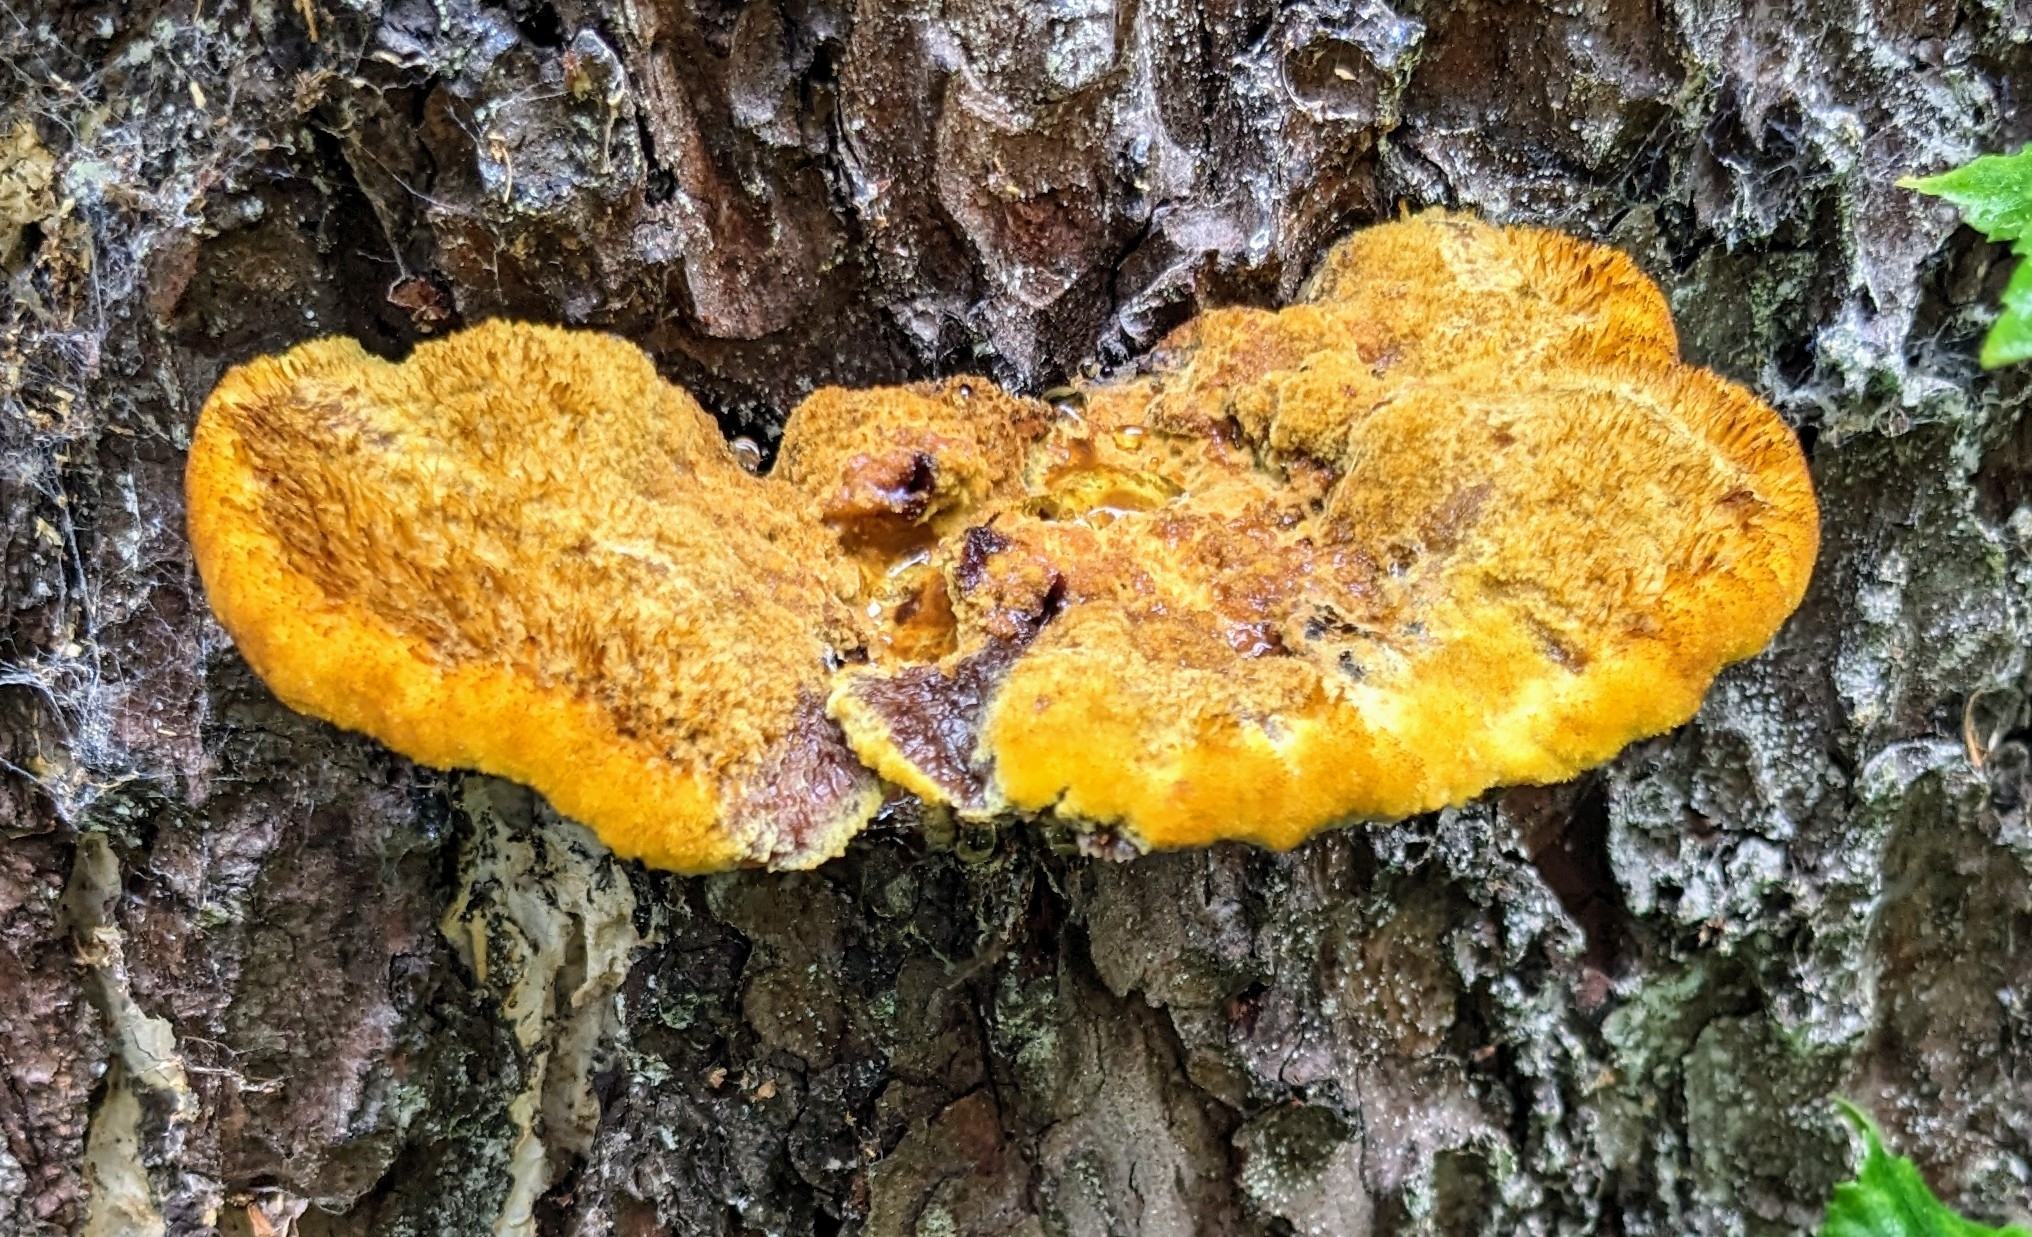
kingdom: Fungi
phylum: Basidiomycota
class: Agaricomycetes
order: Polyporales
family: Laetiporaceae
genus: Phaeolus
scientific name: Phaeolus schweinitzii
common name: Dyer's mazegill
